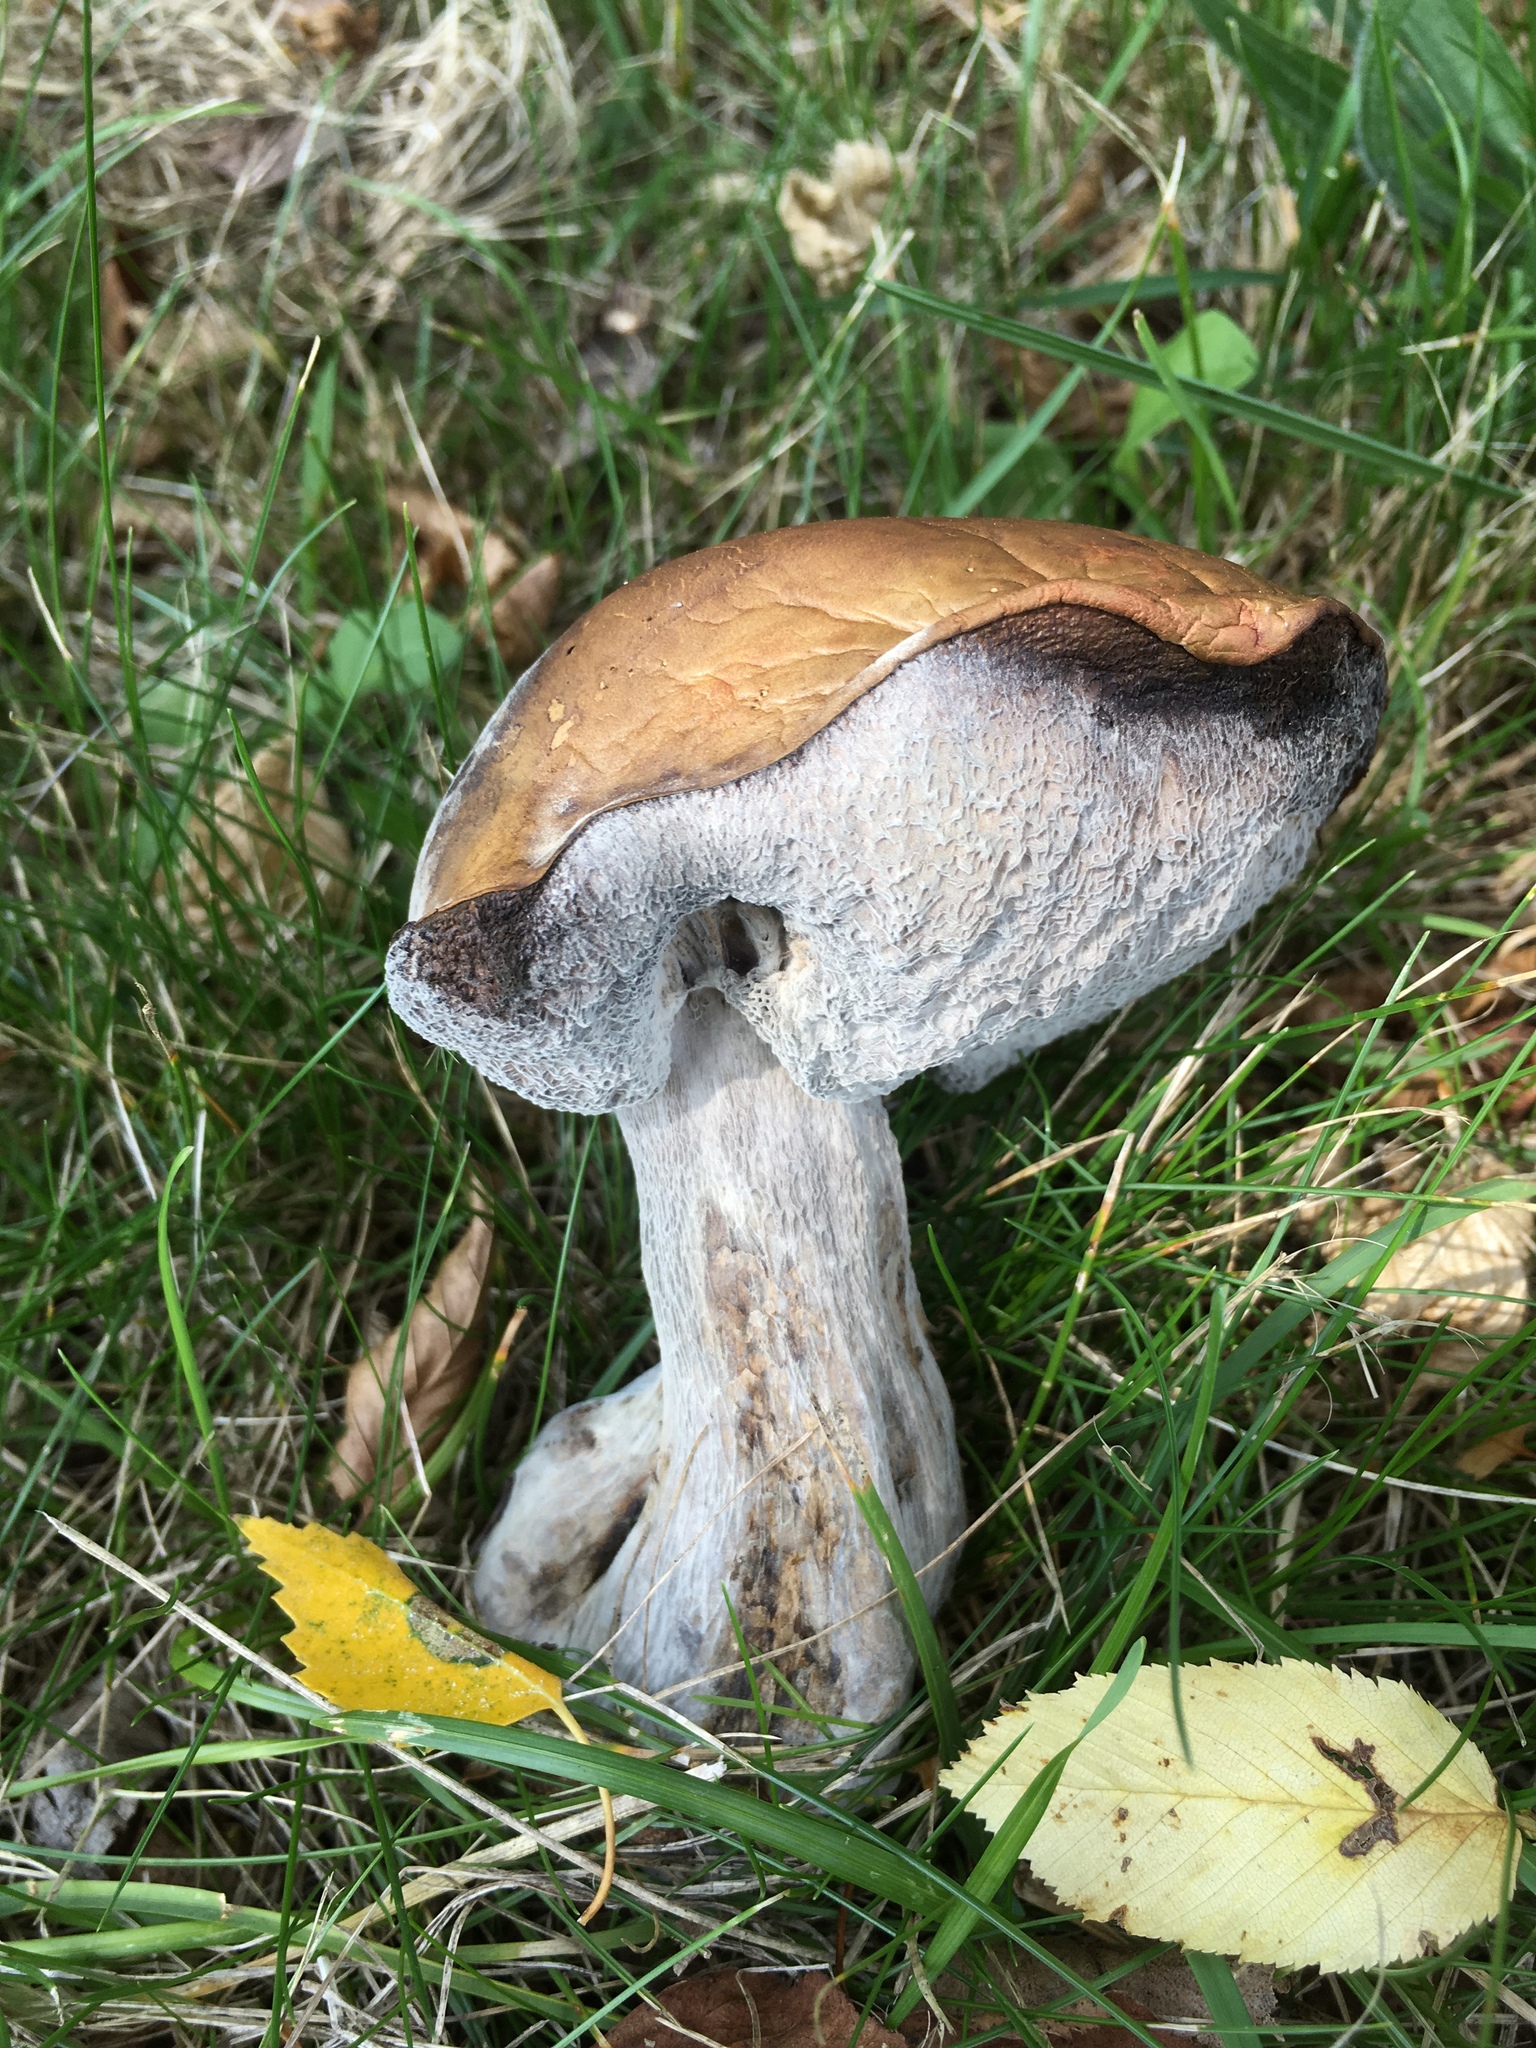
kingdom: Fungi
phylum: Basidiomycota
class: Agaricomycetes
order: Boletales
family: Boletaceae
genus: Leccinum
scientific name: Leccinum scabrum
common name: Blushing bolete
